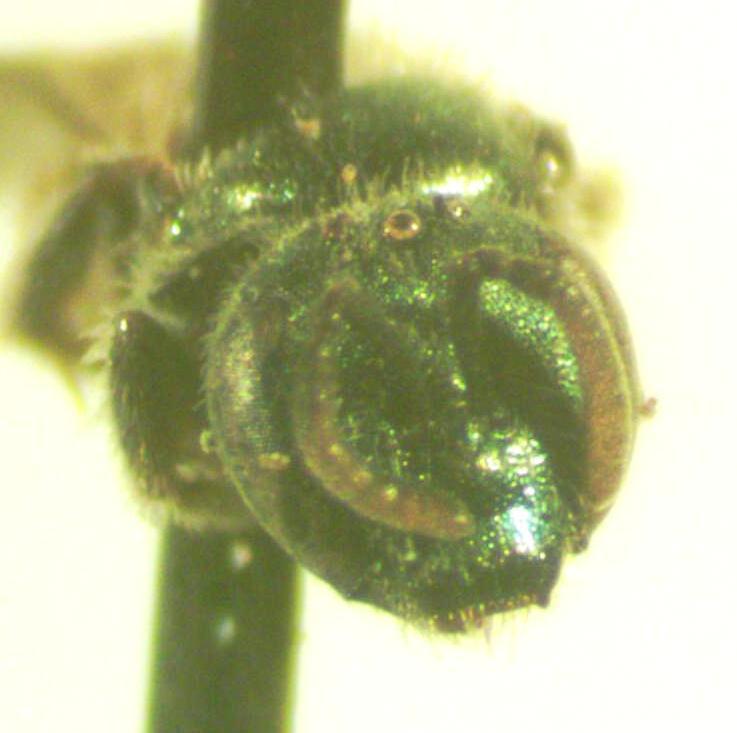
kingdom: Animalia
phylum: Arthropoda
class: Insecta
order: Hymenoptera
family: Halictidae
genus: Dialictus
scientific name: Dialictus
